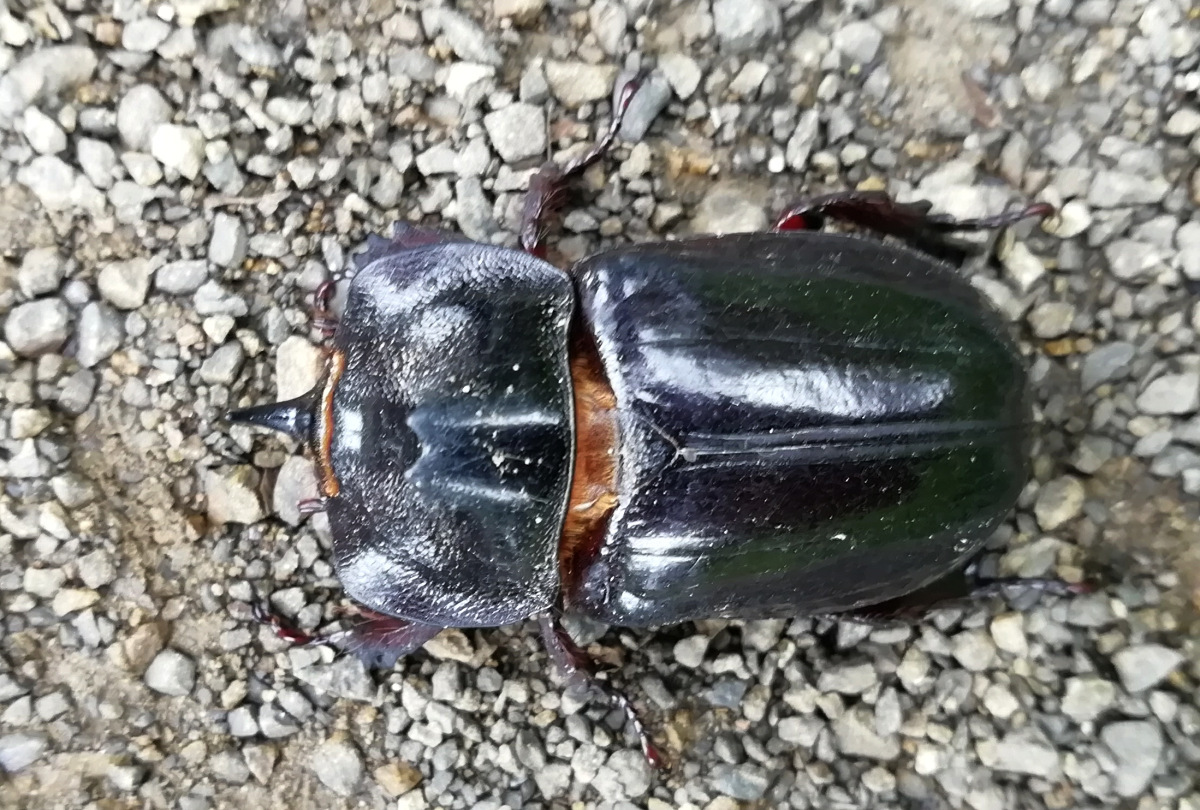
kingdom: Animalia
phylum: Arthropoda
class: Insecta
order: Coleoptera
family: Scarabaeidae
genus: Heterogomphus
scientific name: Heterogomphus dilaticollis
